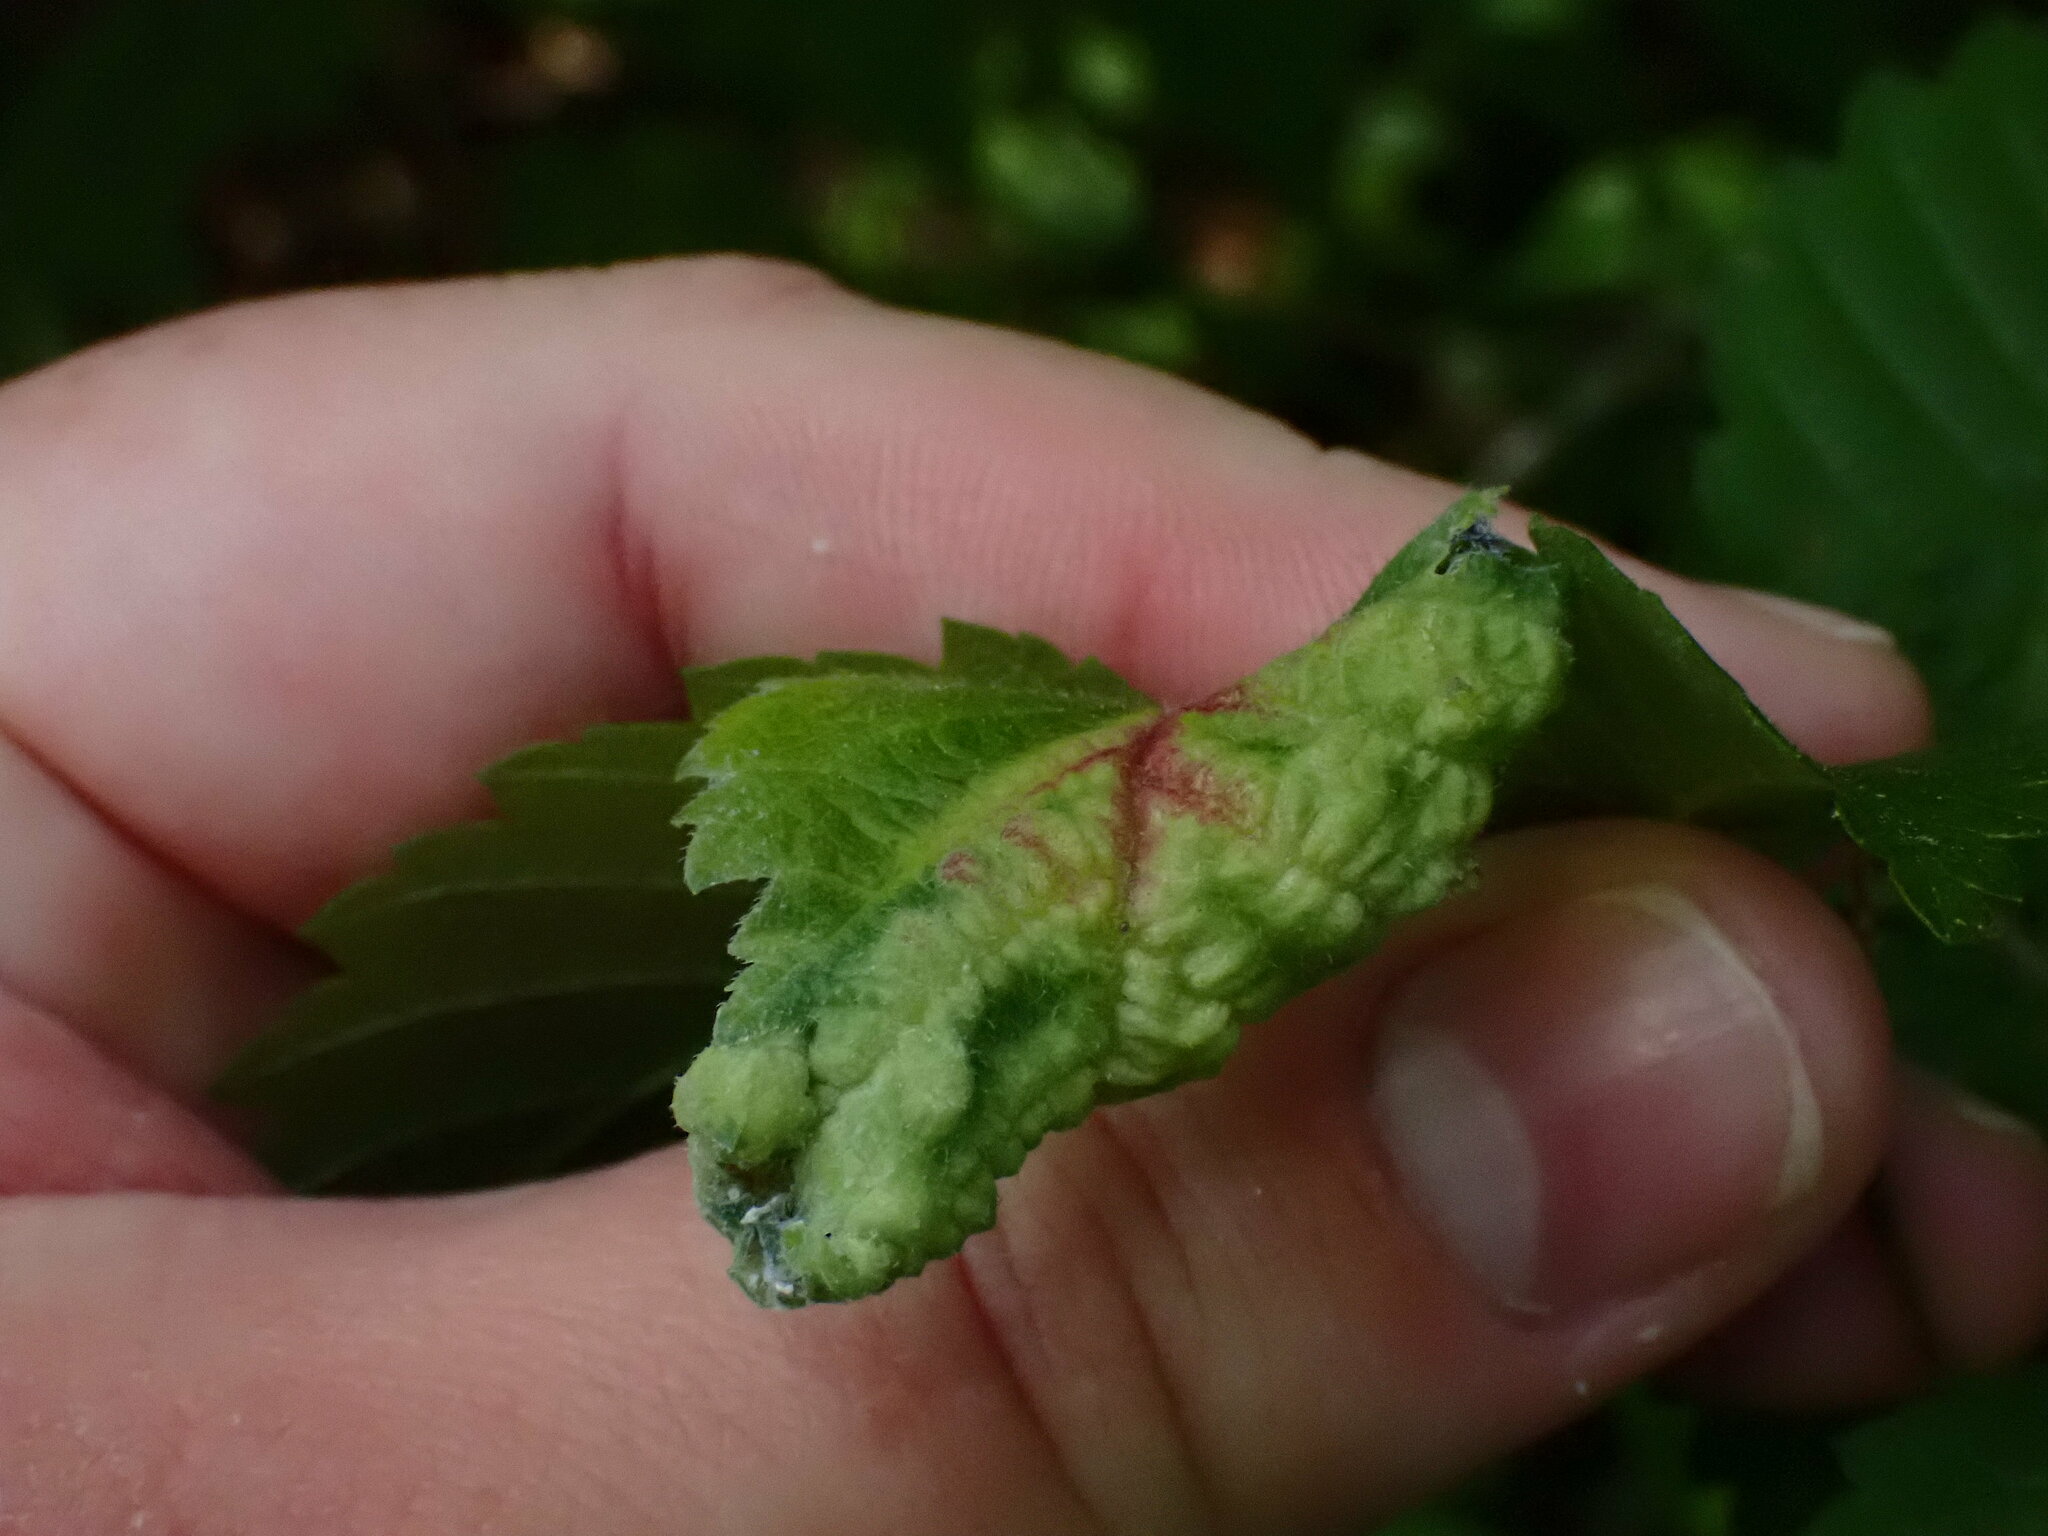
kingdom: Animalia
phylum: Arthropoda
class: Insecta
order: Hemiptera
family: Aphididae
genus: Eriosoma
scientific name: Eriosoma americanum
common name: Woolly elm aphid
